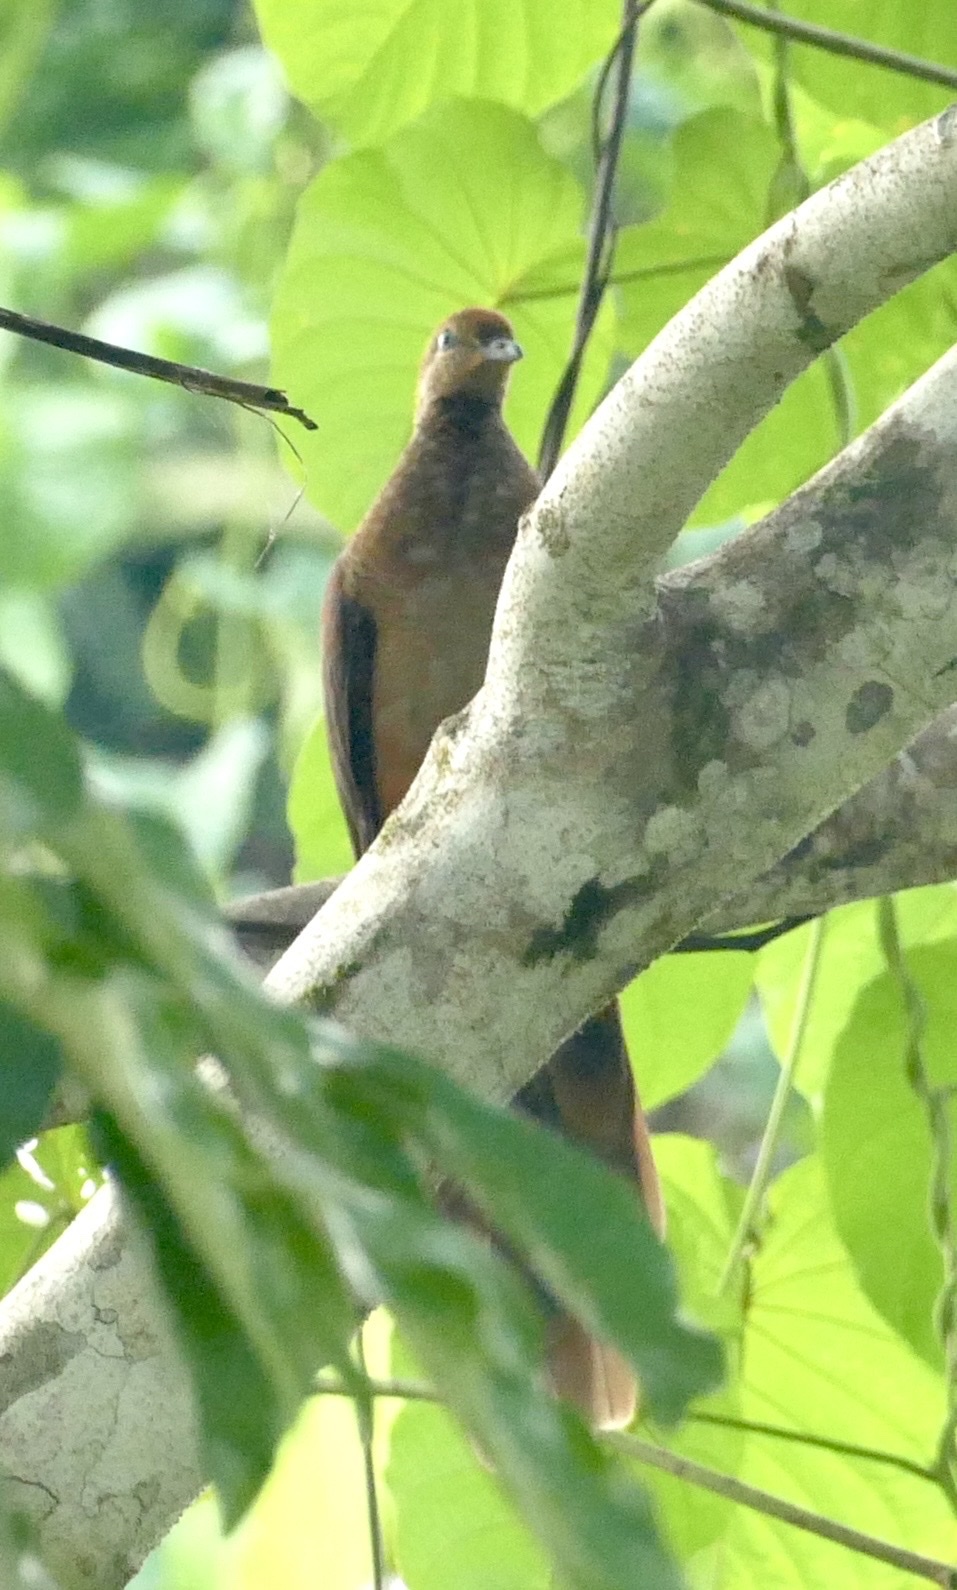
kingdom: Animalia
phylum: Chordata
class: Aves
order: Columbiformes
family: Columbidae
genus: Macropygia
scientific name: Macropygia doreya
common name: Sultan's cuckoo-dove
